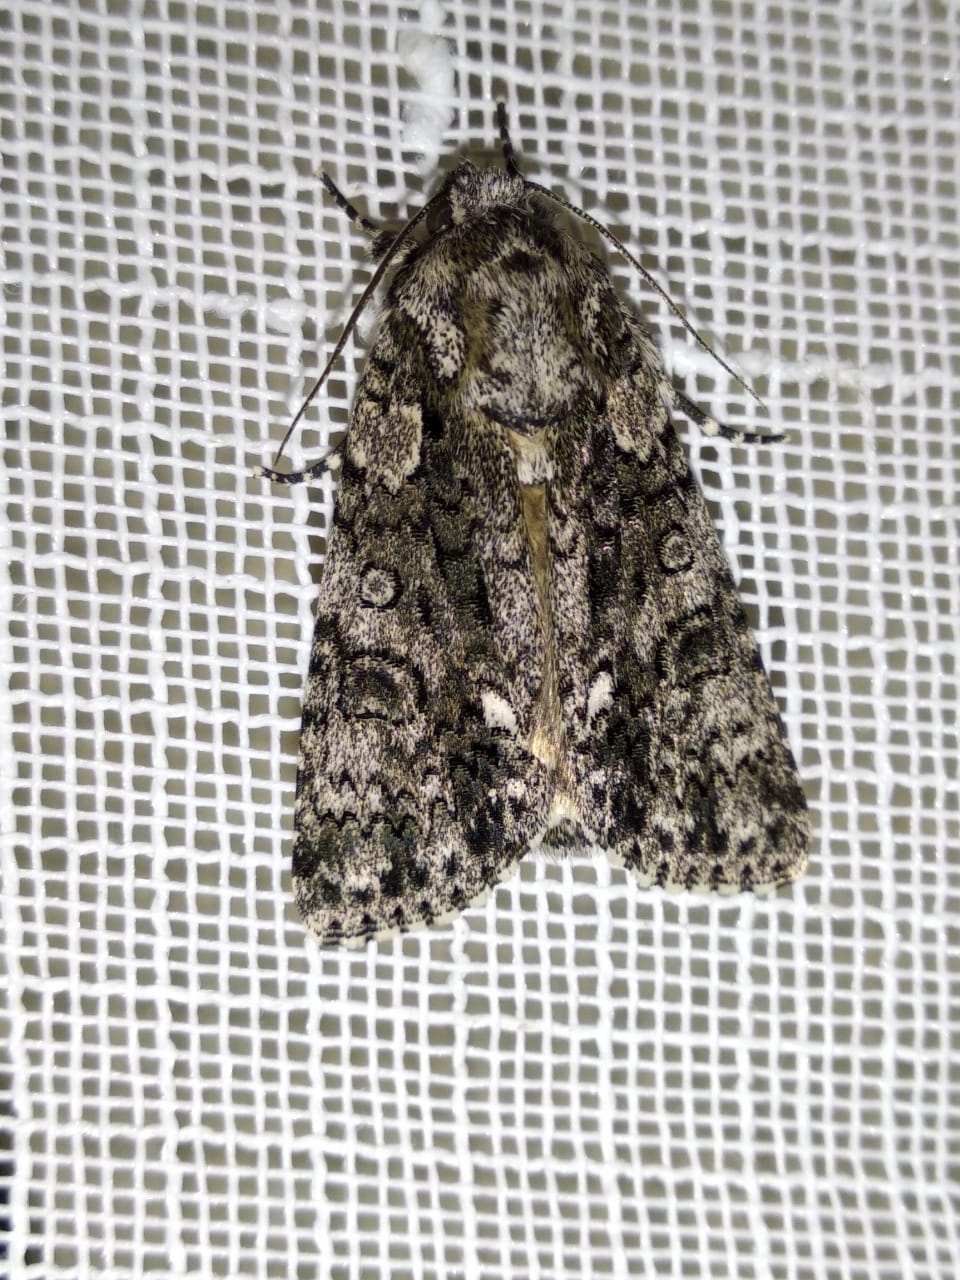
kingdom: Animalia
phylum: Arthropoda
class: Insecta
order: Lepidoptera
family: Noctuidae
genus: Acronicta
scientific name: Acronicta rumicis
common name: Knot grass
